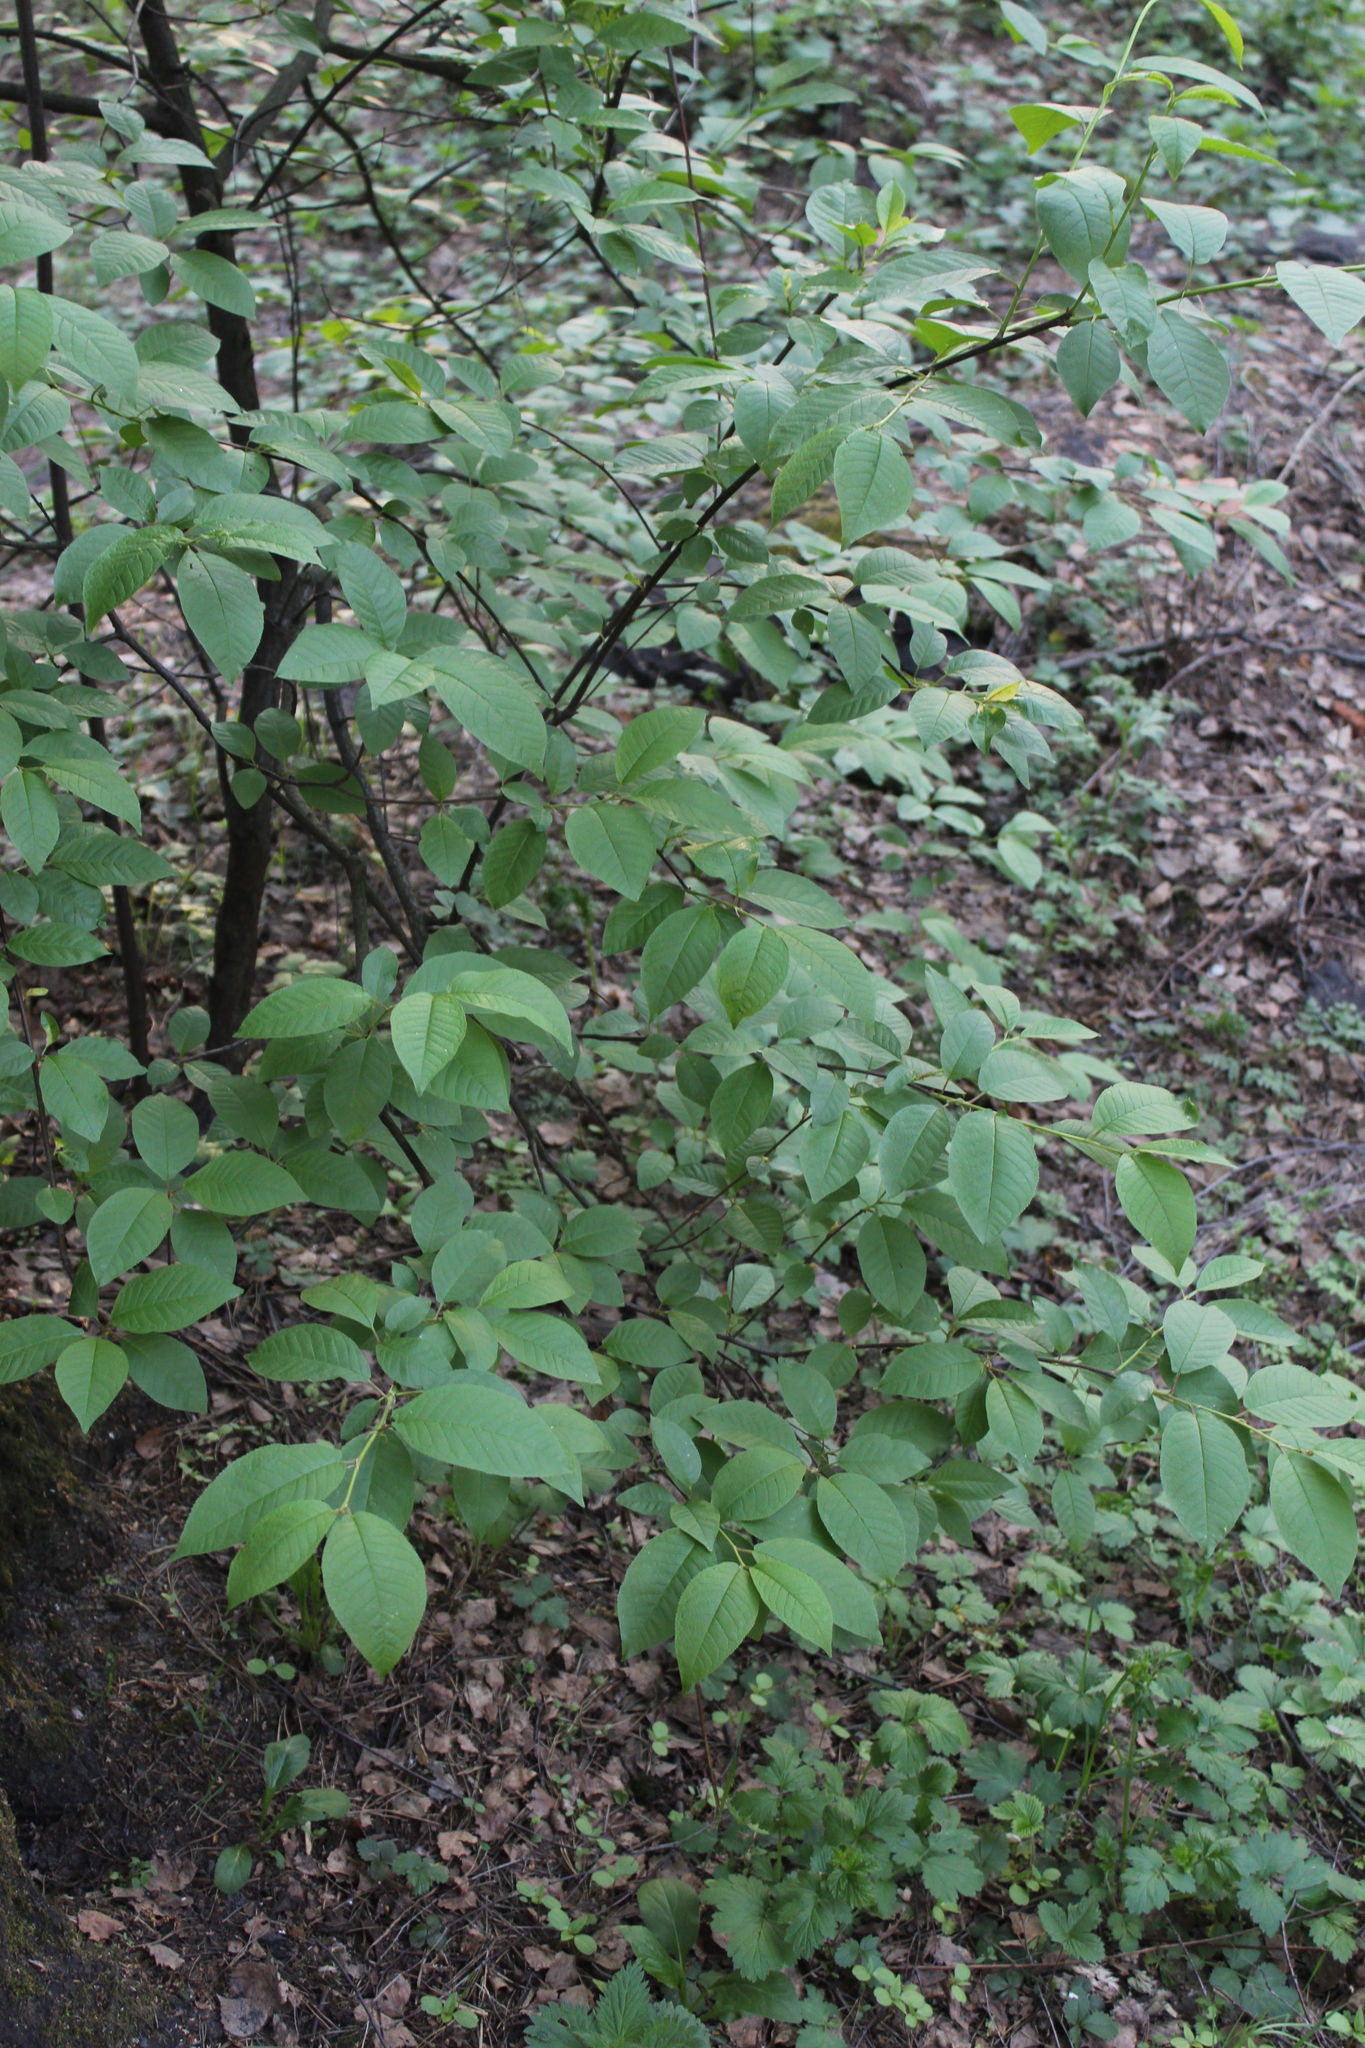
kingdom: Plantae
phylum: Tracheophyta
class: Magnoliopsida
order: Rosales
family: Rosaceae
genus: Prunus
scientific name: Prunus padus
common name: Bird cherry
